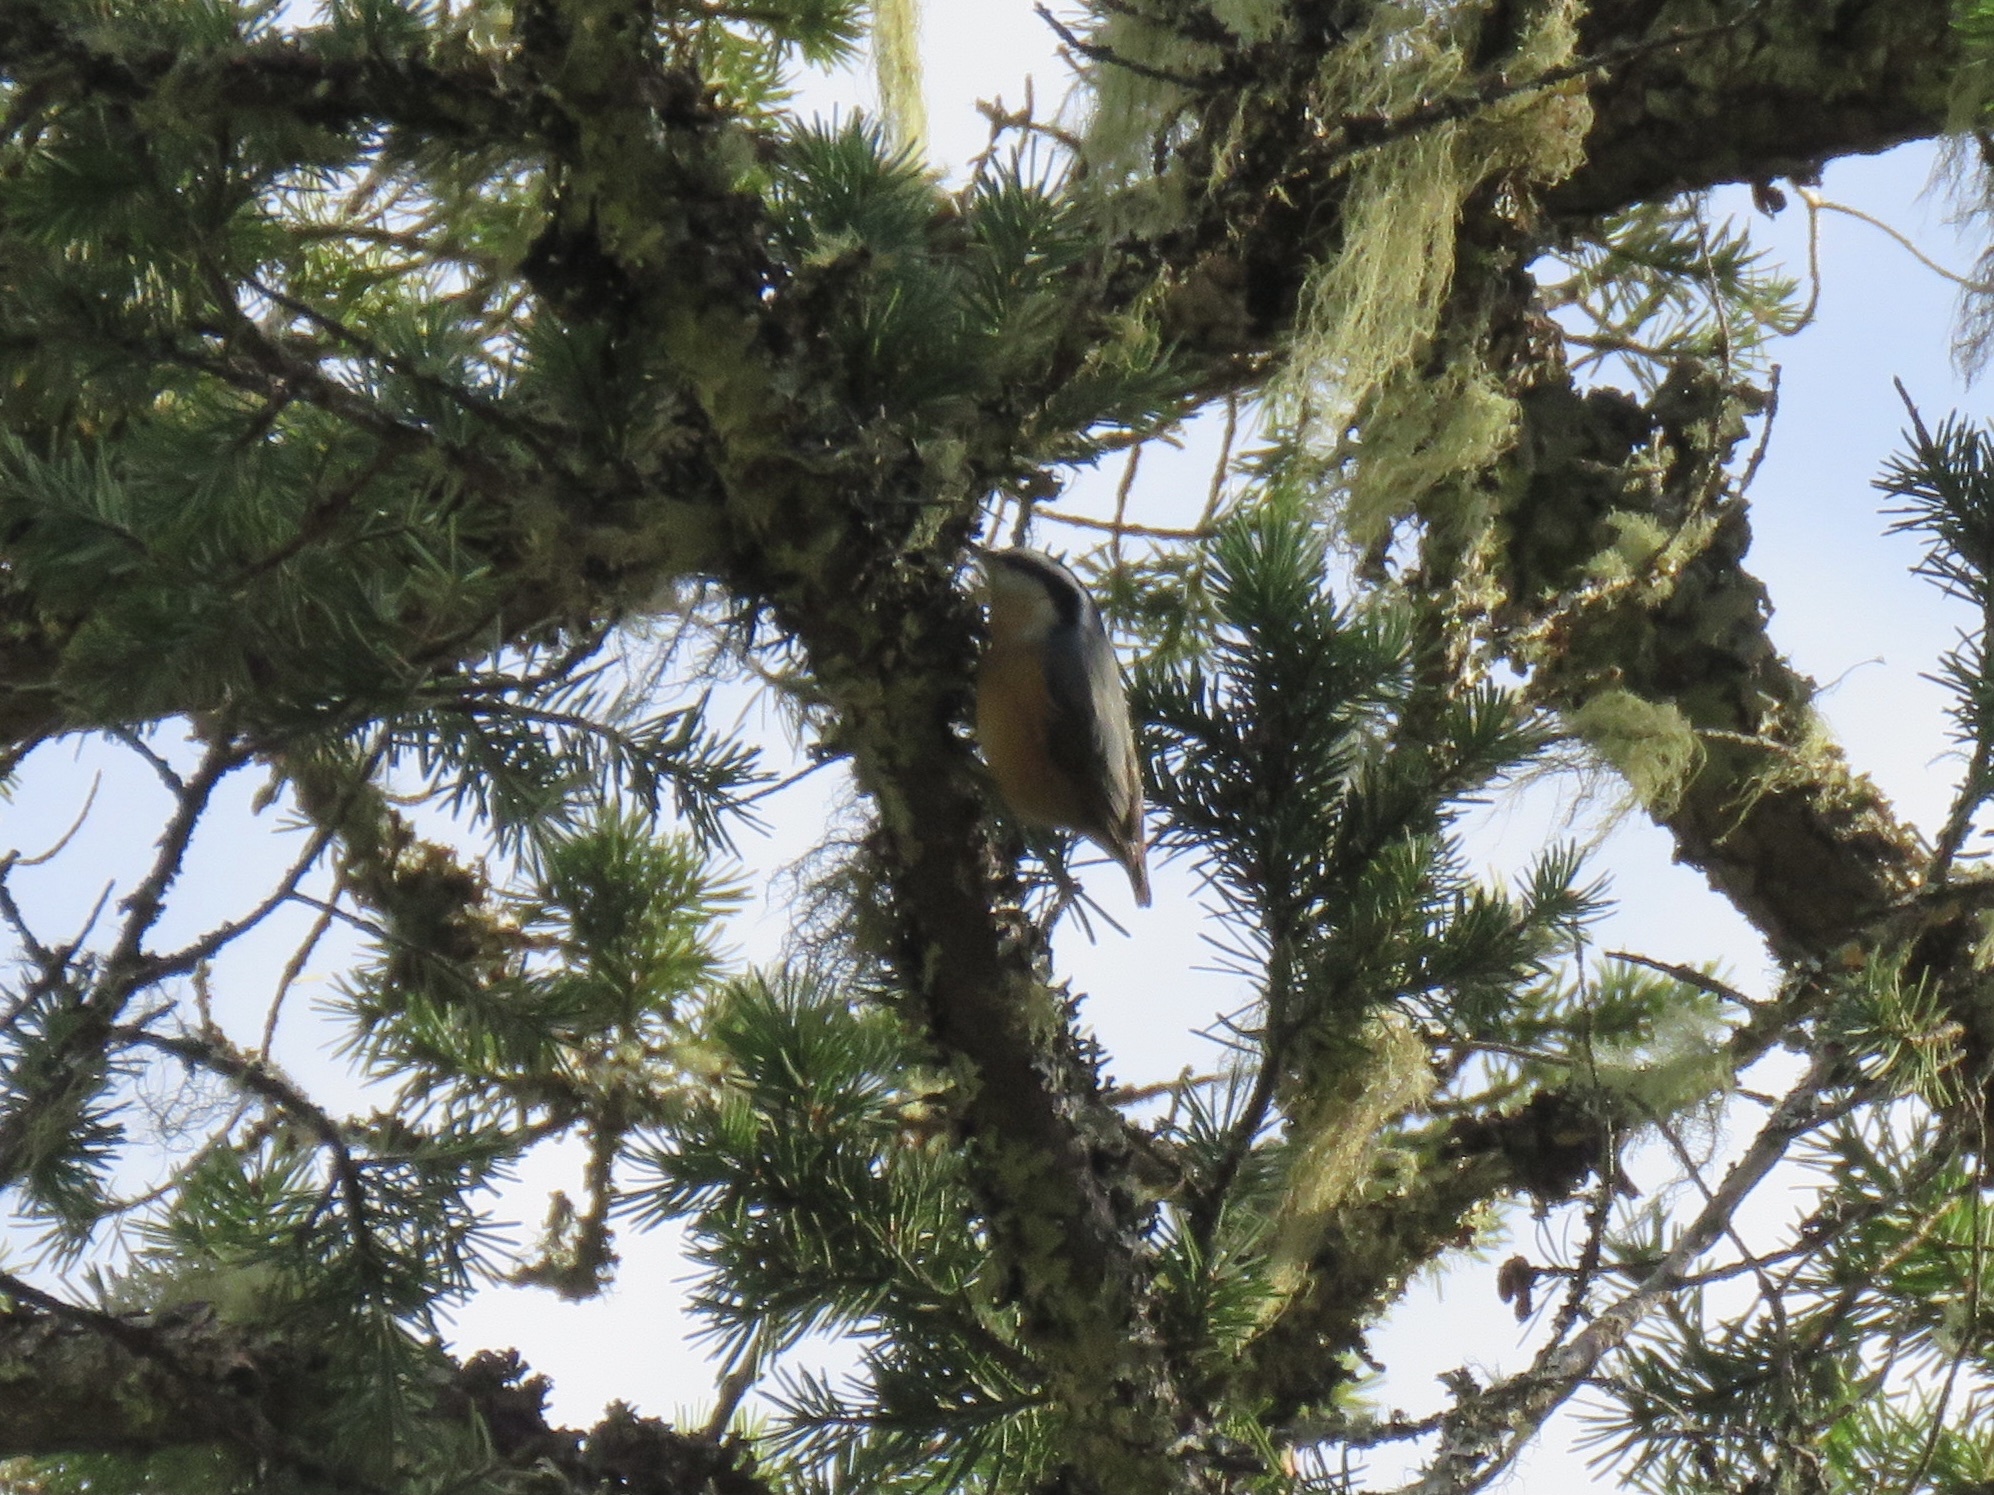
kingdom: Animalia
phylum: Chordata
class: Aves
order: Passeriformes
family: Sittidae
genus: Sitta
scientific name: Sitta canadensis
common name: Red-breasted nuthatch
